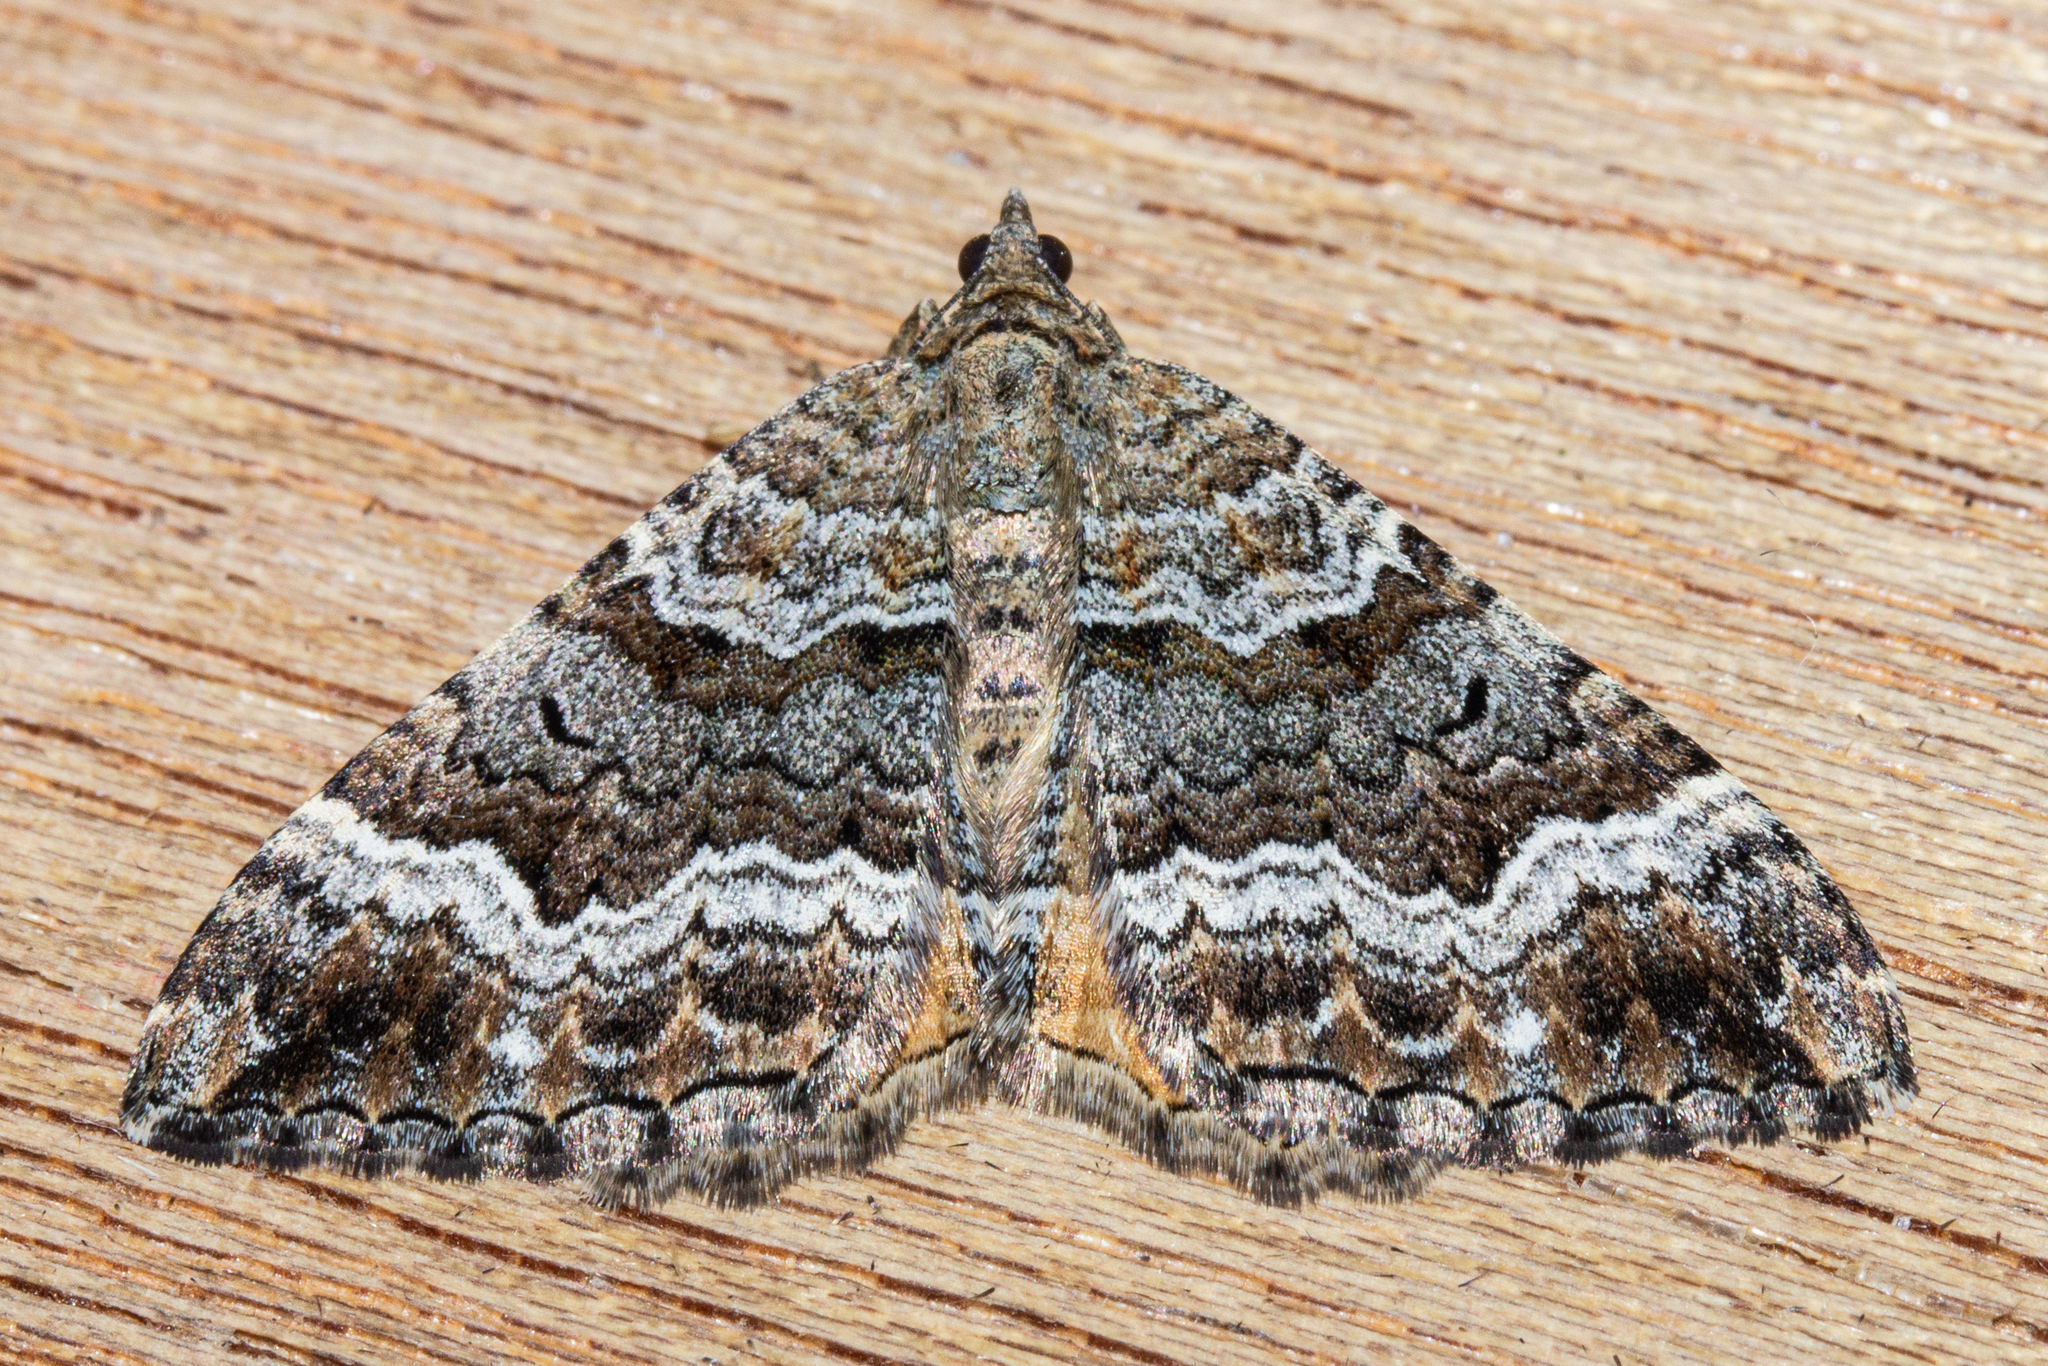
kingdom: Animalia
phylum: Arthropoda
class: Insecta
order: Lepidoptera
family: Geometridae
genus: Hydriomena
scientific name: Hydriomena deltoidata
